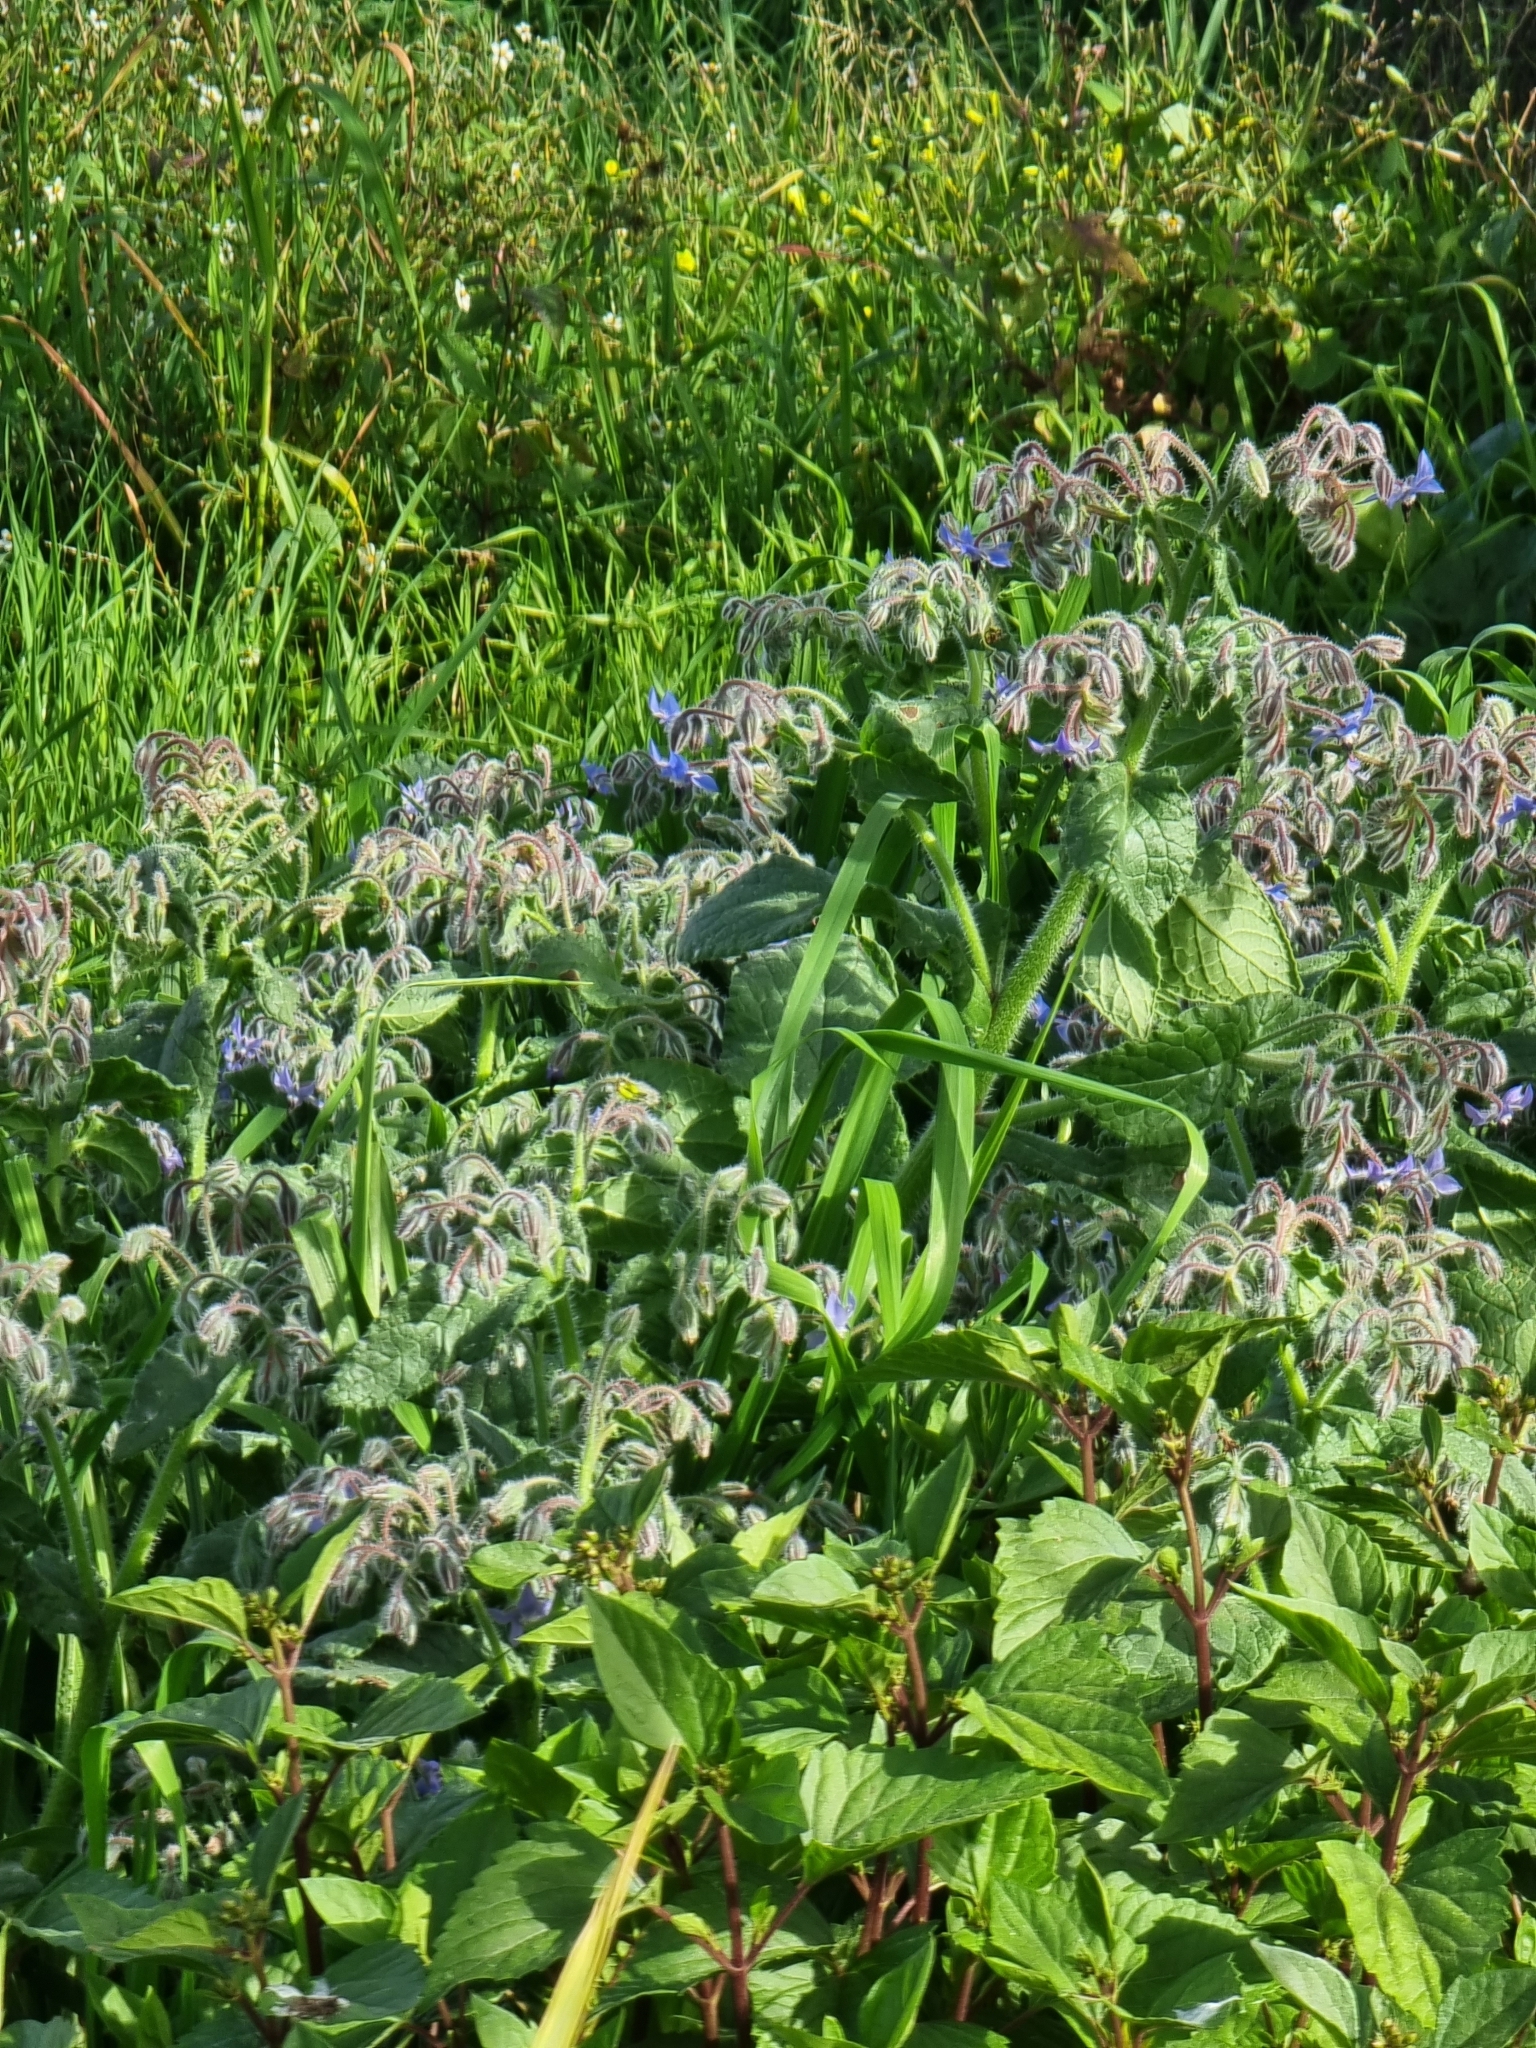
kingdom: Plantae
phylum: Tracheophyta
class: Magnoliopsida
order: Boraginales
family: Boraginaceae
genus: Borago
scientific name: Borago officinalis
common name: Borage
